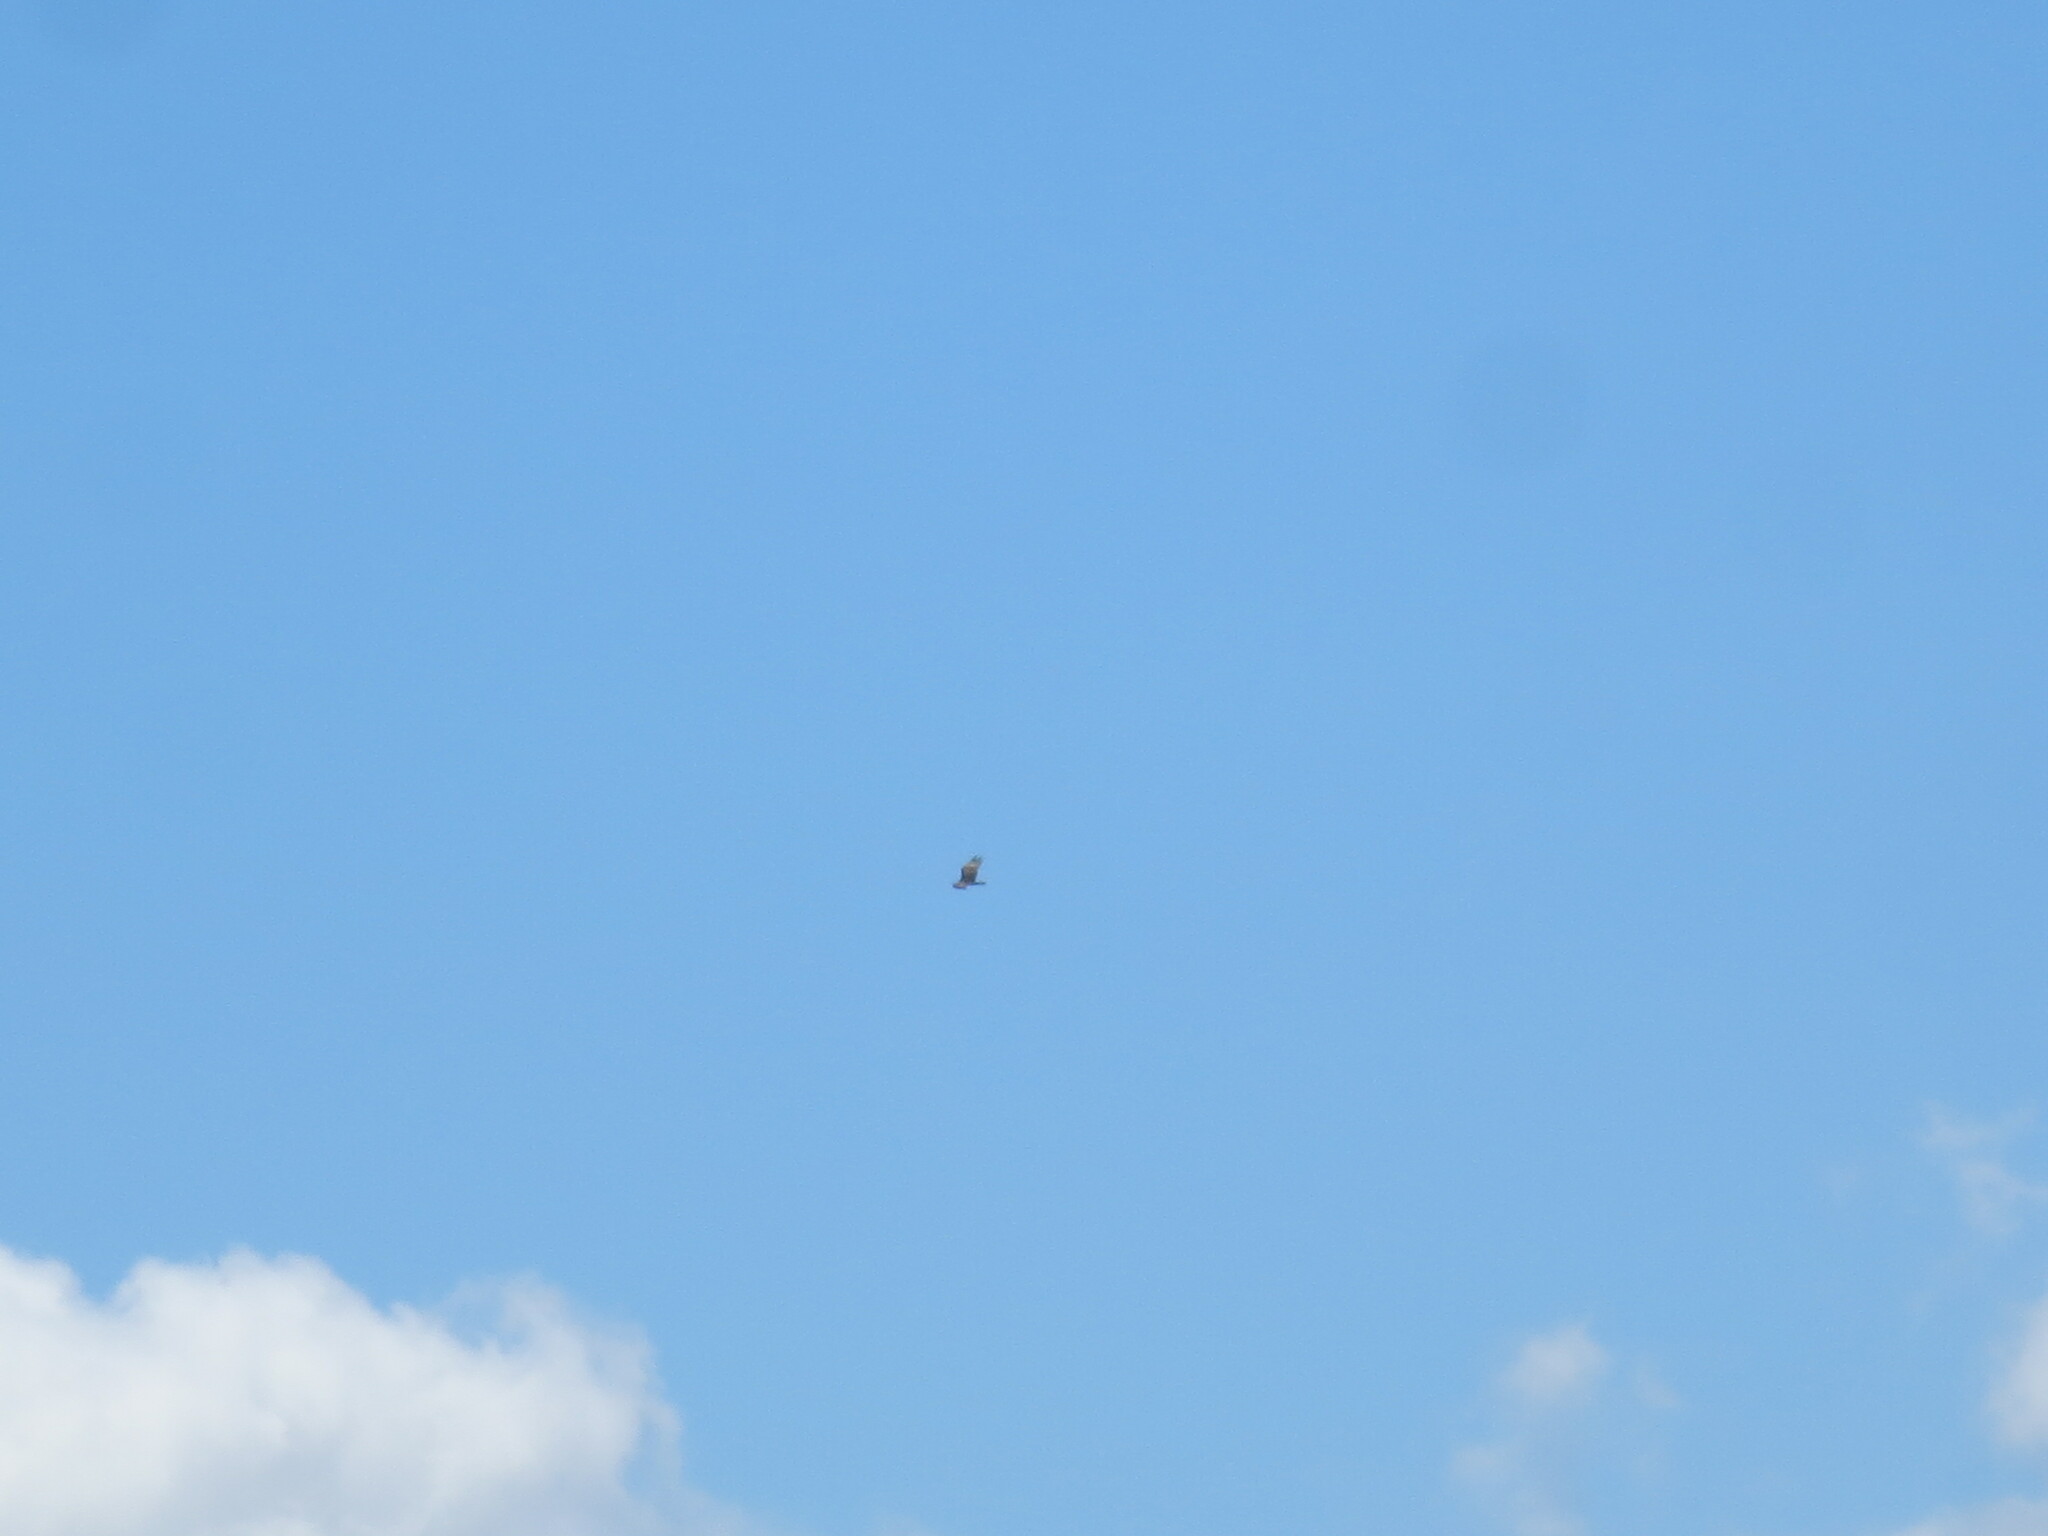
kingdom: Animalia
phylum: Chordata
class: Aves
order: Accipitriformes
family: Cathartidae
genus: Cathartes
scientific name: Cathartes aura
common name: Turkey vulture
